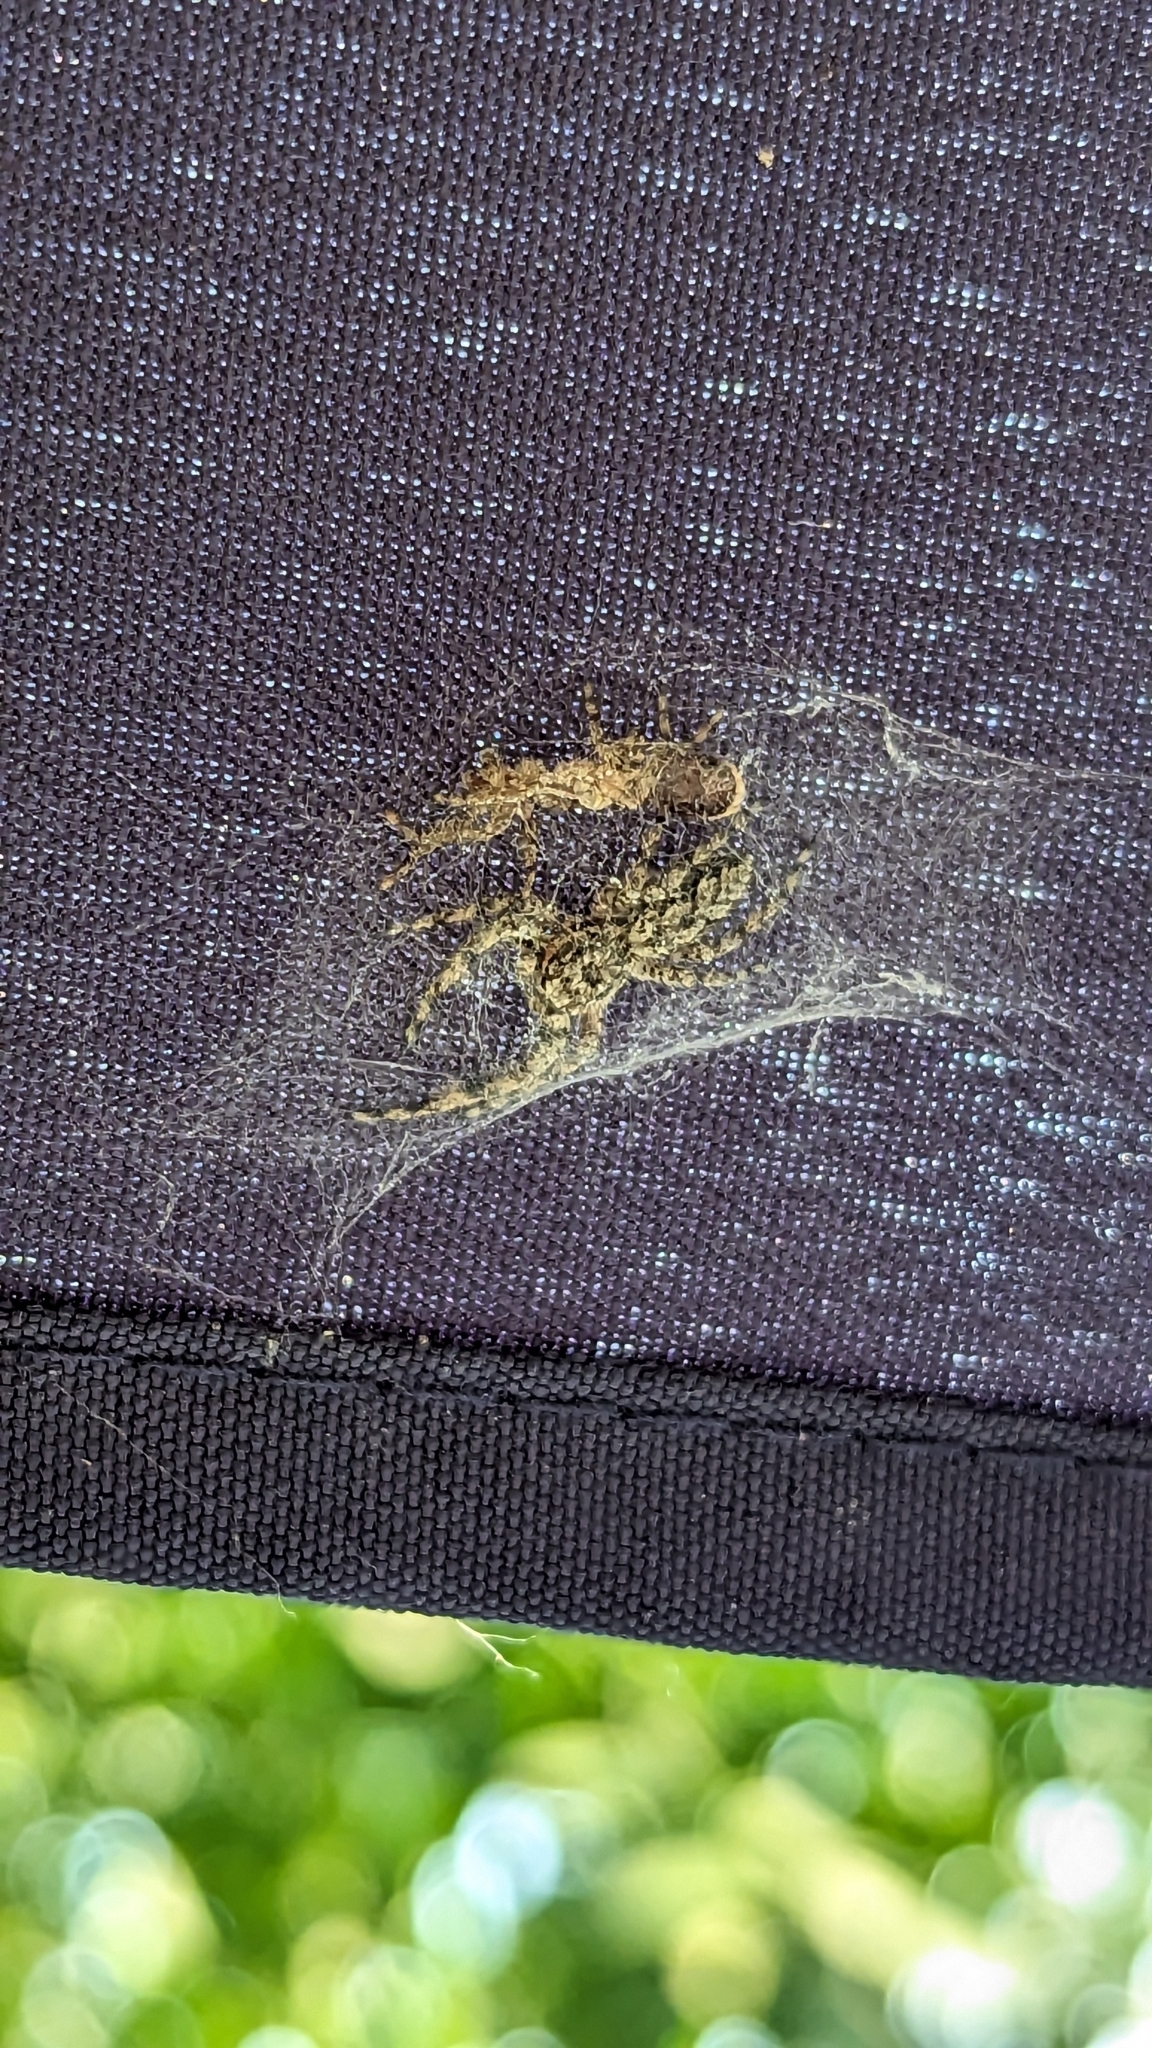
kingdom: Animalia
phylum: Arthropoda
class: Arachnida
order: Araneae
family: Salticidae
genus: Platycryptus
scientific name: Platycryptus undatus
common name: Tan jumping spider
